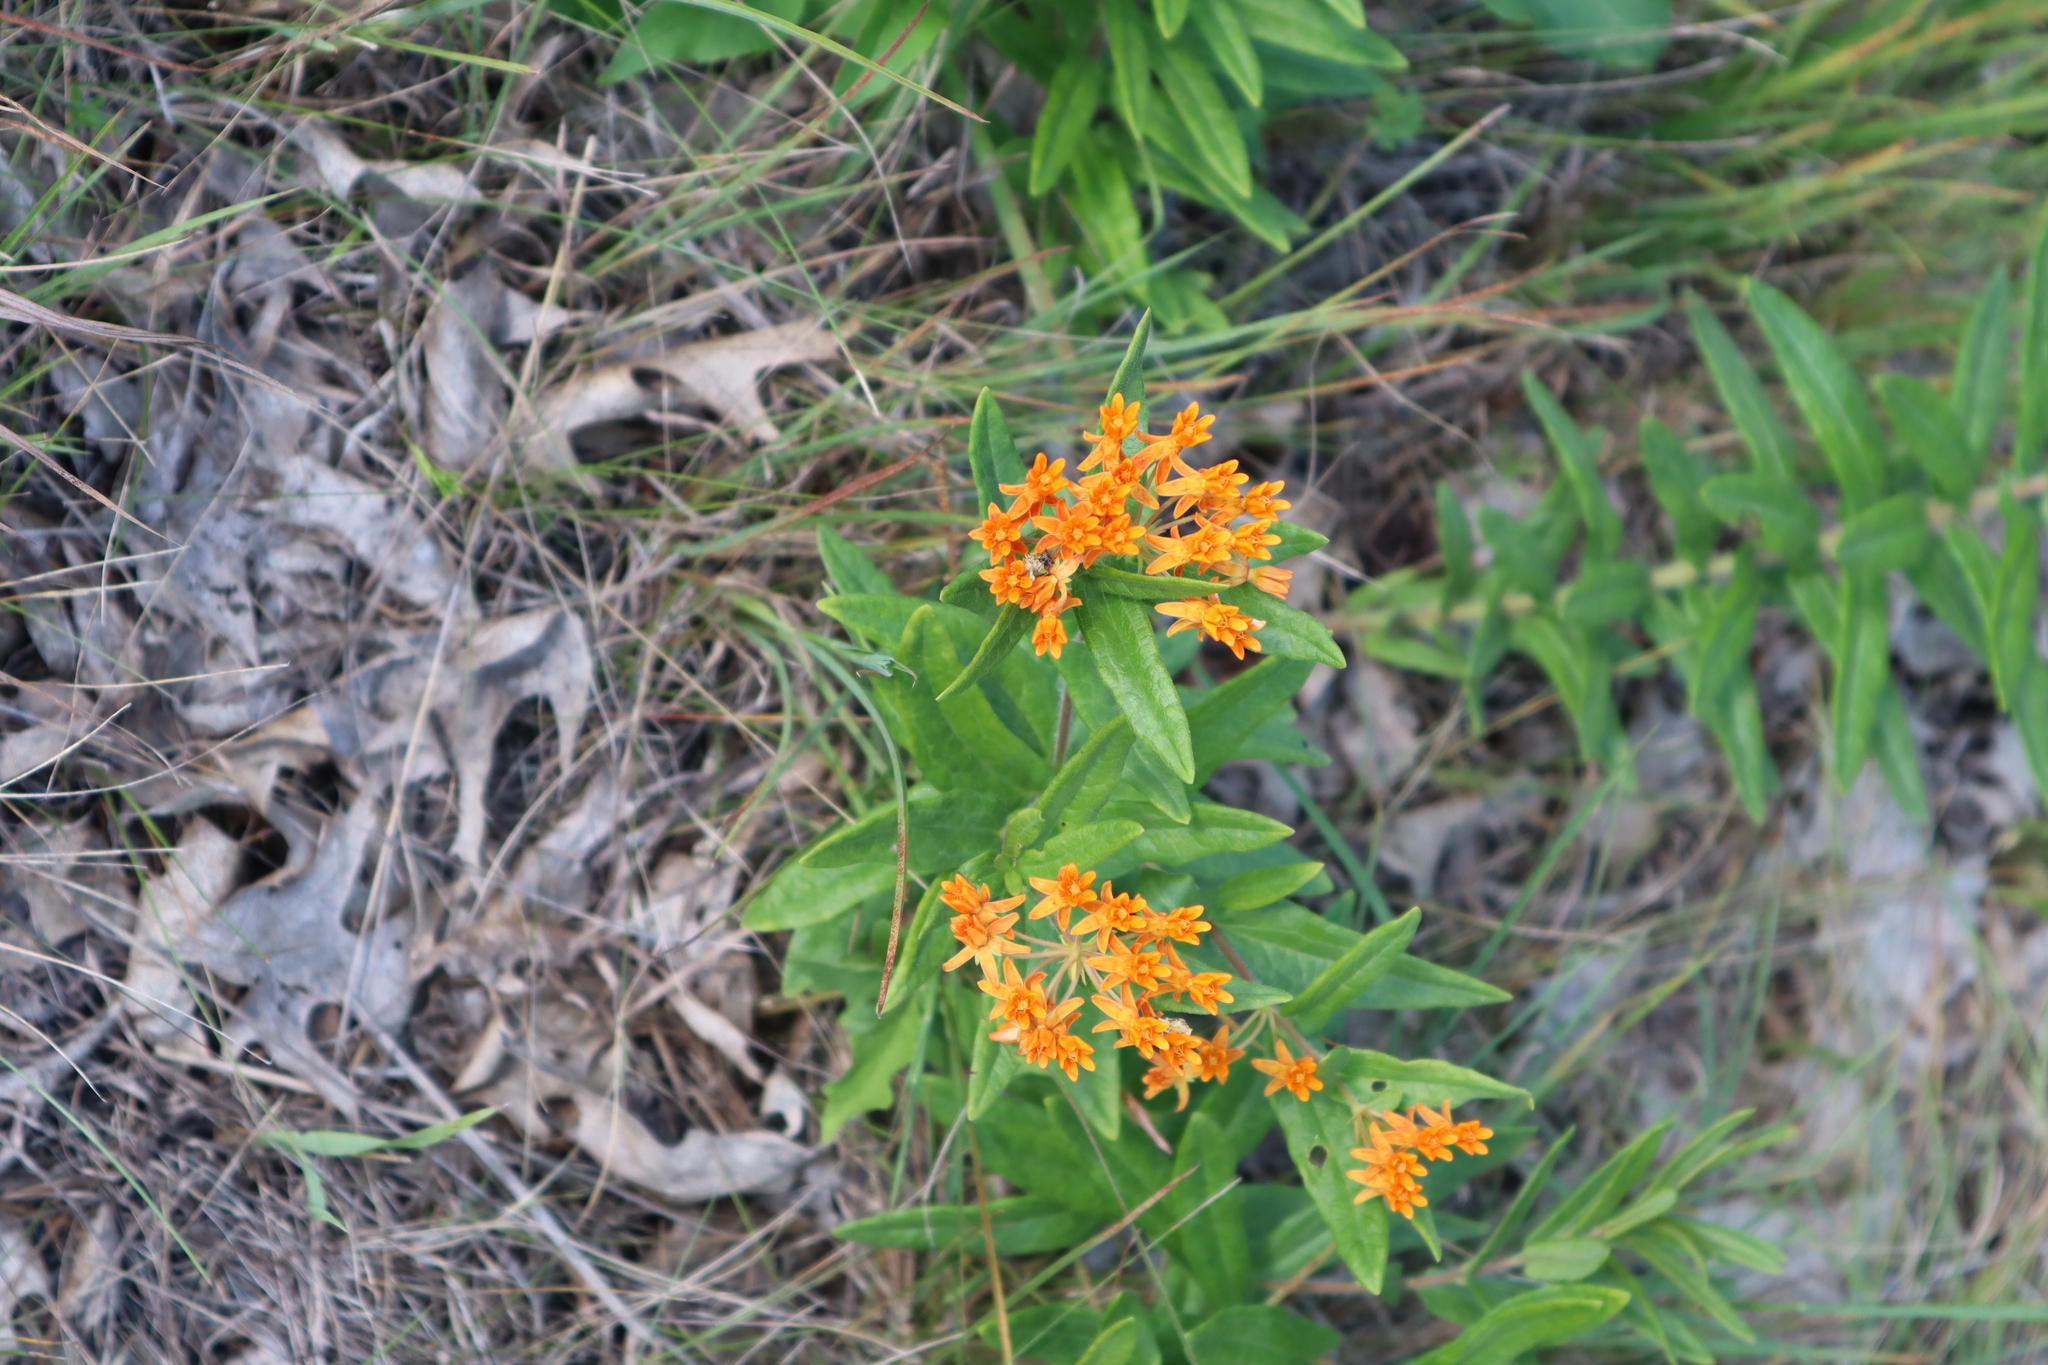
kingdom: Plantae
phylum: Tracheophyta
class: Magnoliopsida
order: Gentianales
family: Apocynaceae
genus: Asclepias
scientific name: Asclepias tuberosa
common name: Butterfly milkweed
